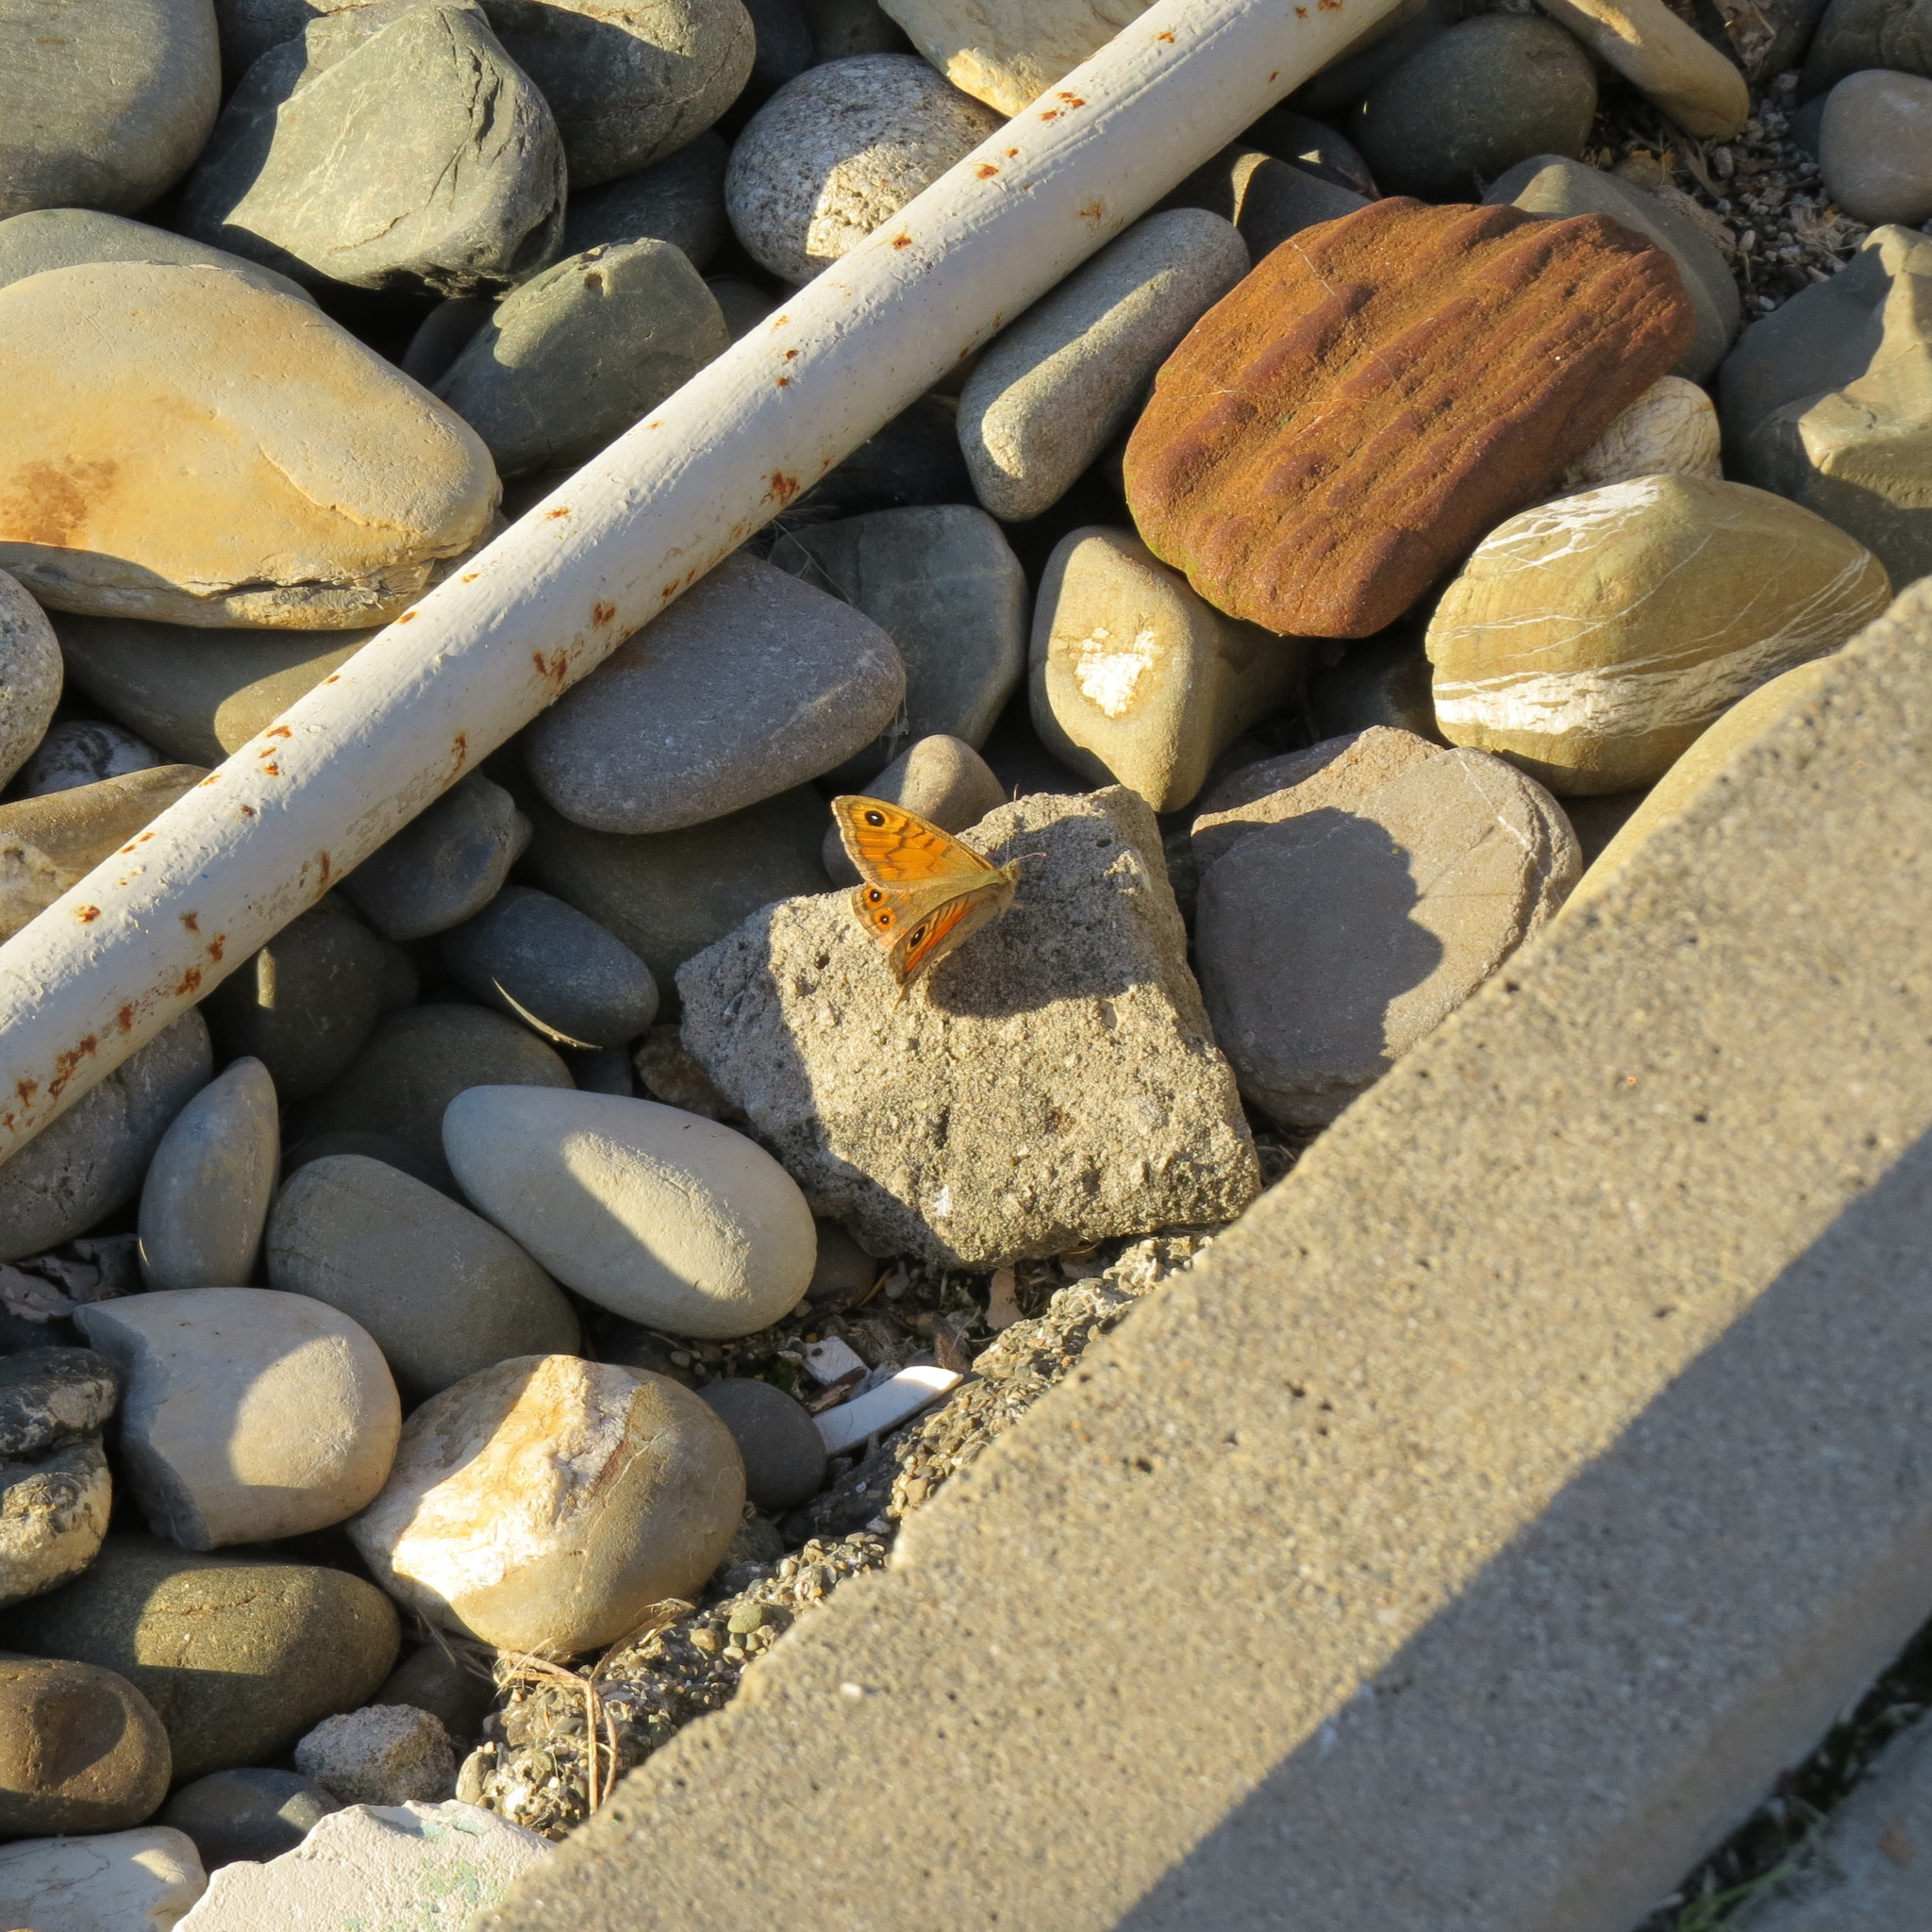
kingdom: Animalia
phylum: Arthropoda
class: Insecta
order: Lepidoptera
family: Nymphalidae
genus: Pararge
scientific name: Pararge Lasiommata megera
